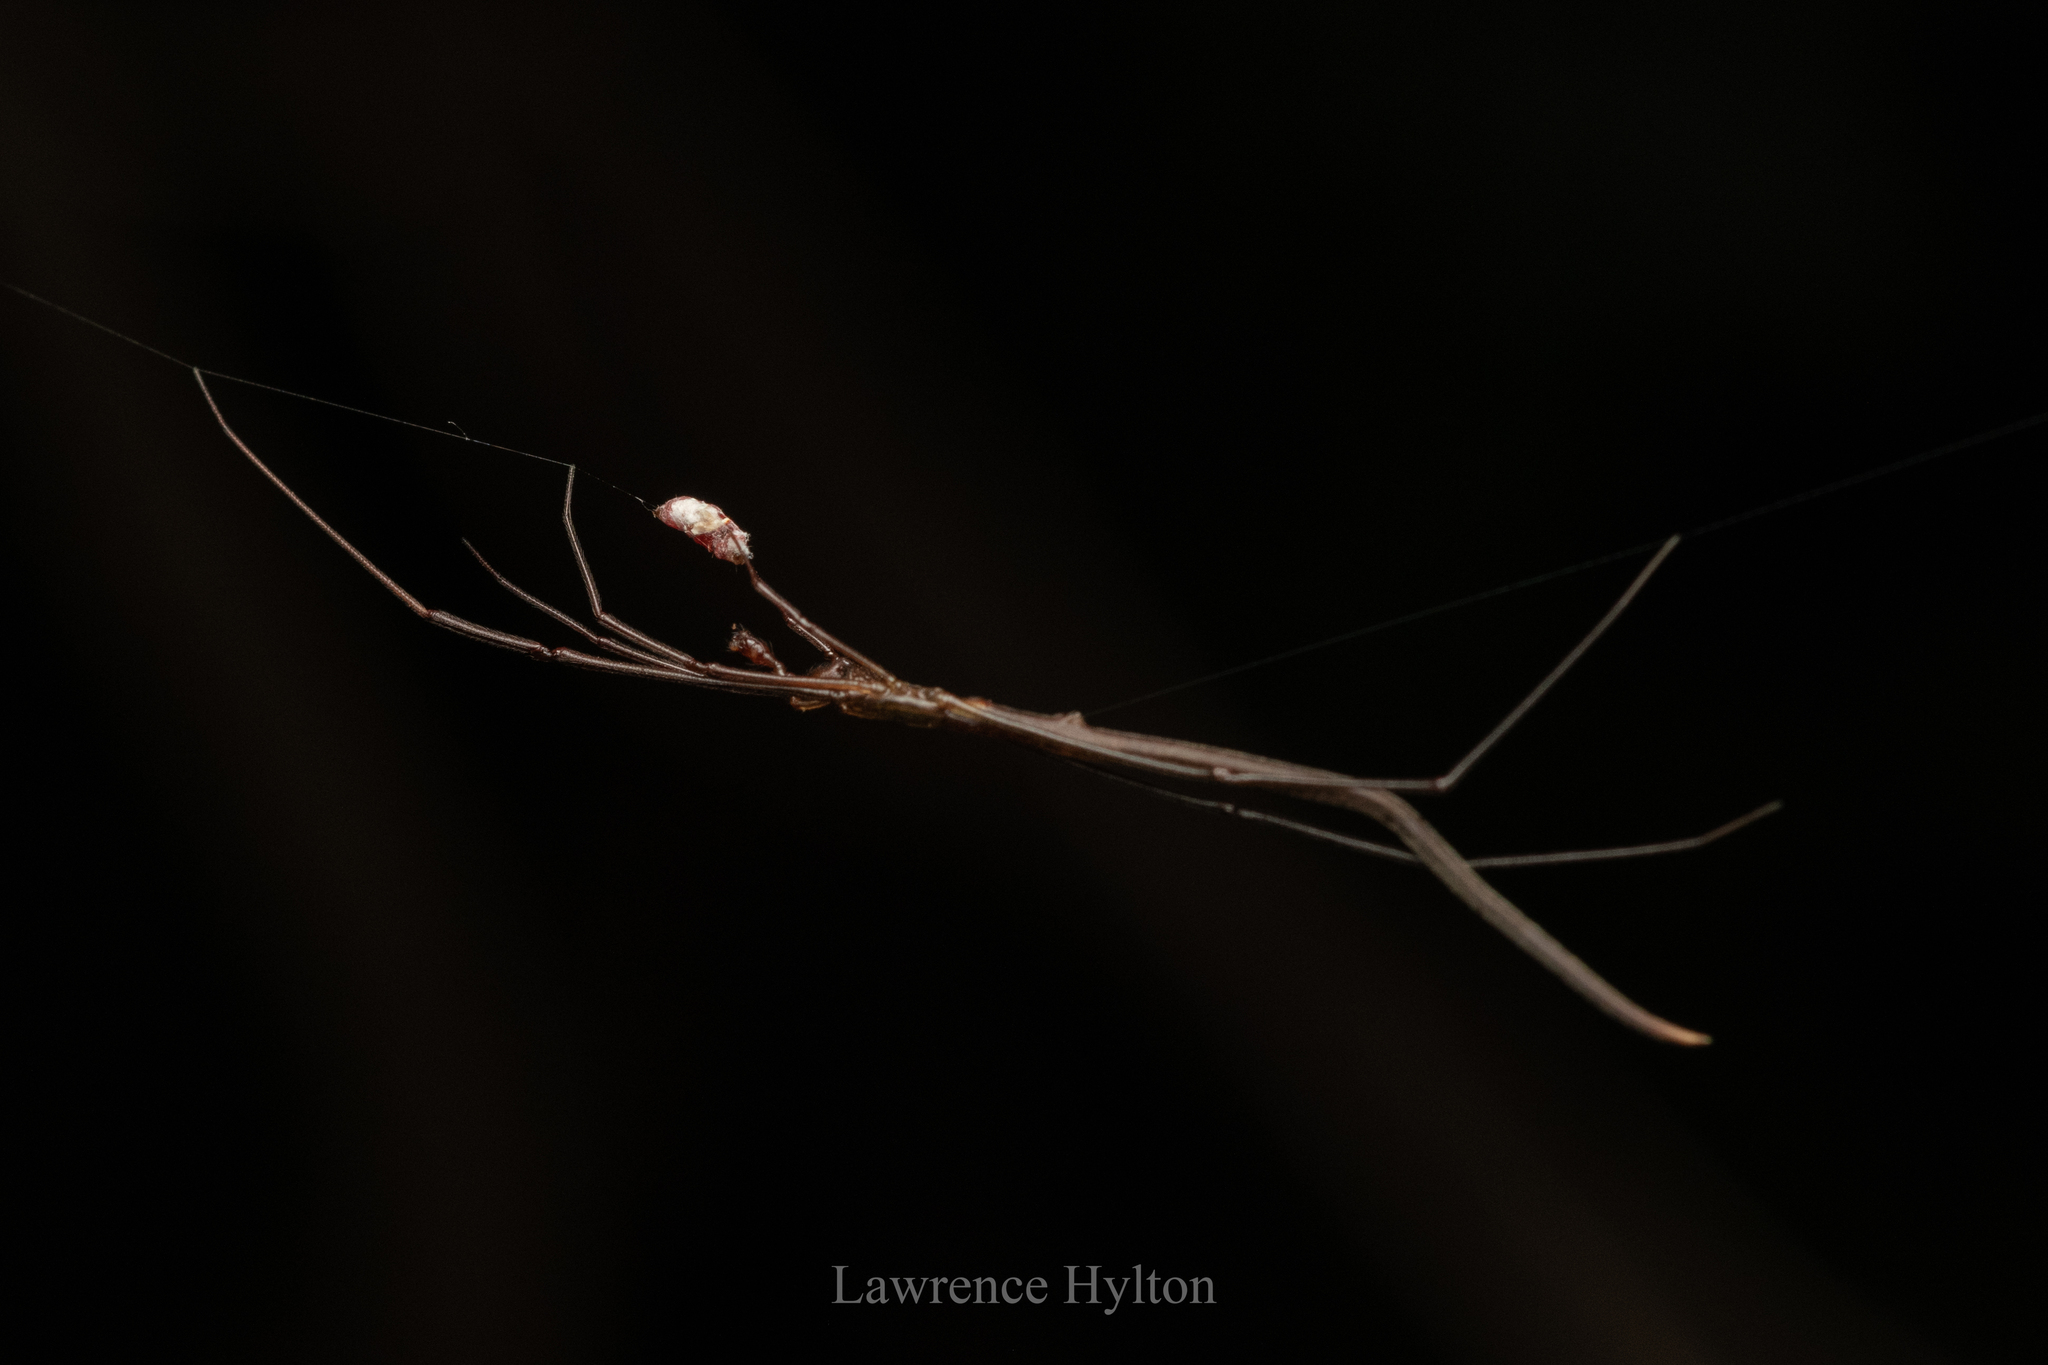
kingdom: Animalia
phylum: Arthropoda
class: Arachnida
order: Araneae
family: Theridiidae
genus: Ariamnes
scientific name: Ariamnes cylindrogaster
